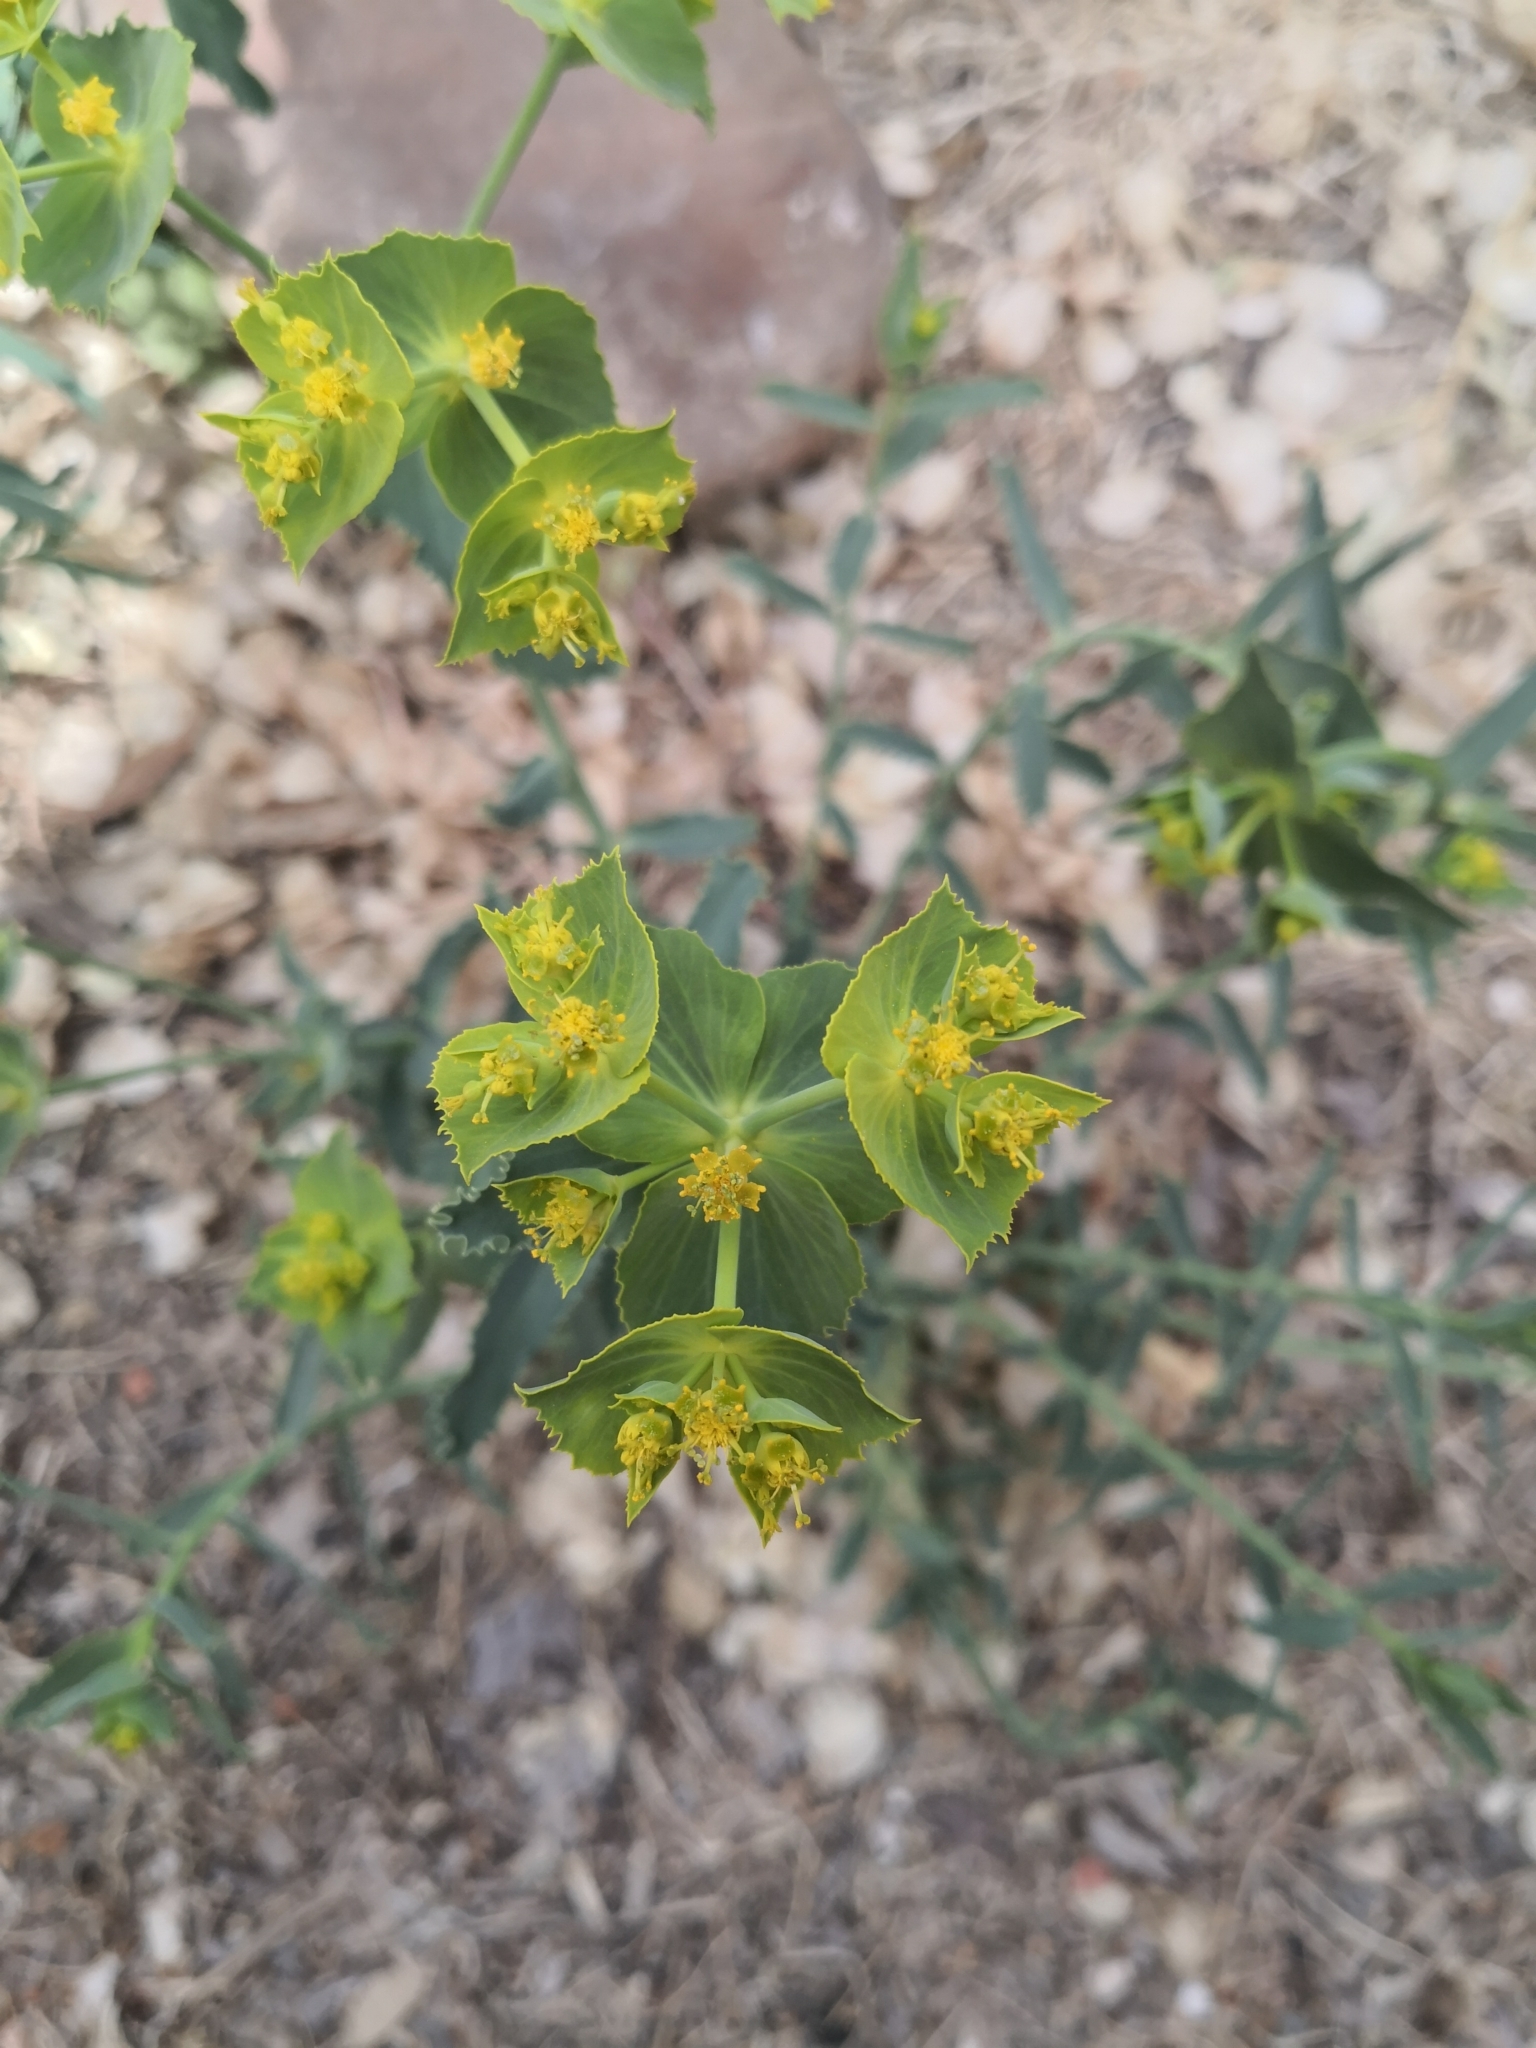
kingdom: Plantae
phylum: Tracheophyta
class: Magnoliopsida
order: Malpighiales
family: Euphorbiaceae
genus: Euphorbia
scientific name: Euphorbia serrata
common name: Serrate spurge
